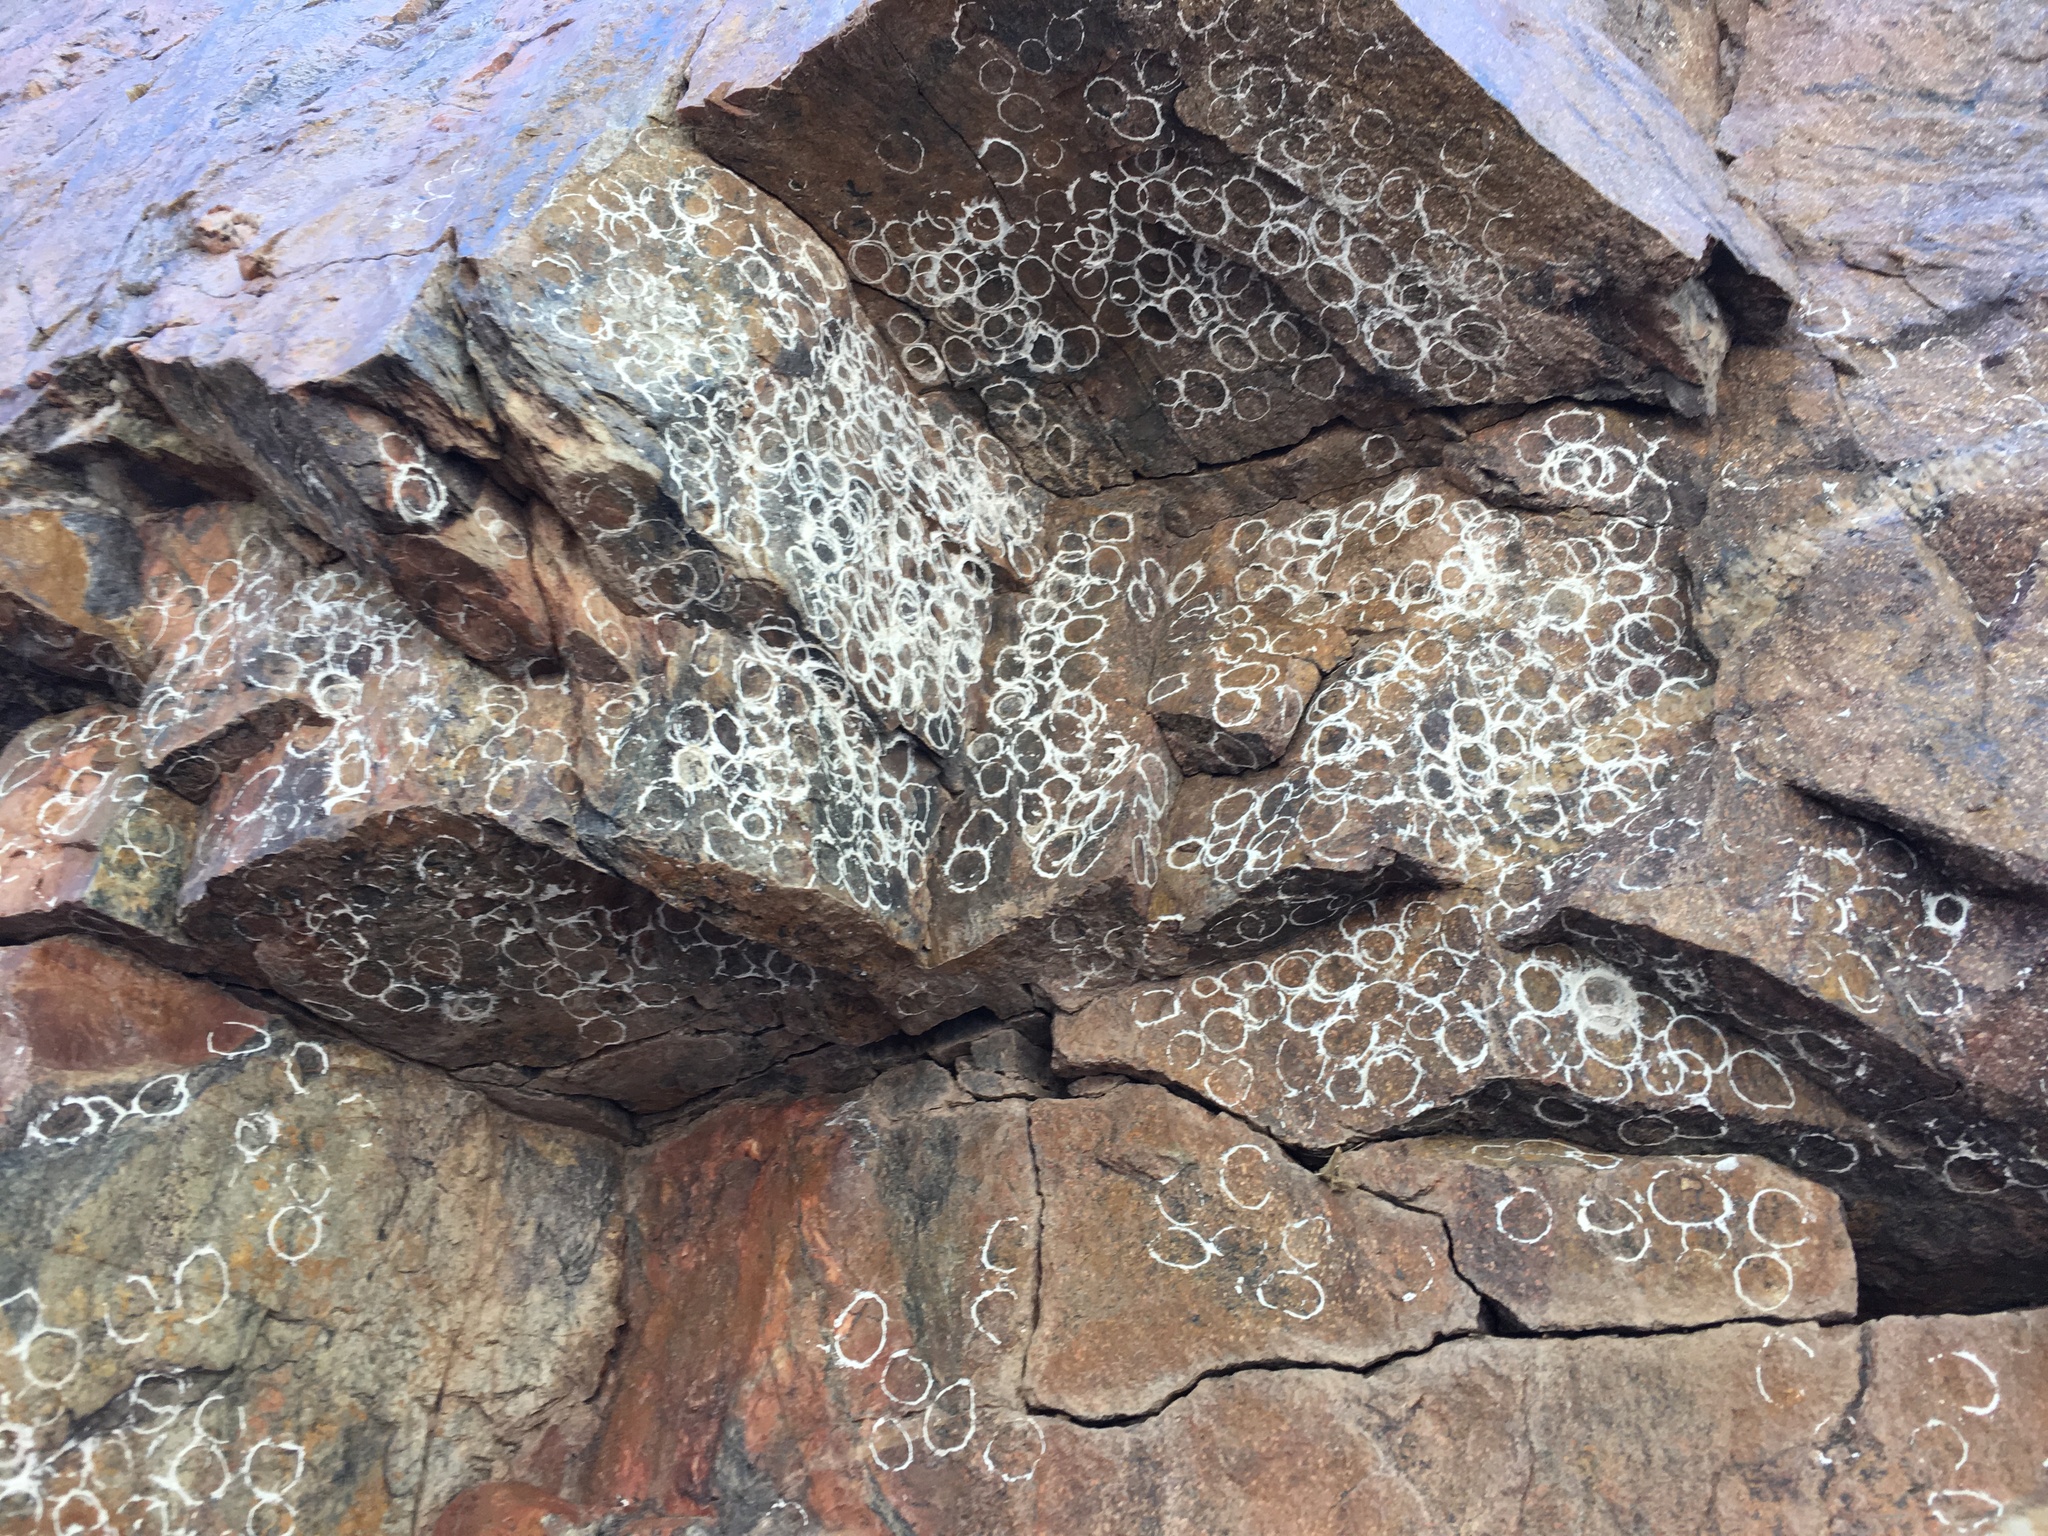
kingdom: Animalia
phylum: Arthropoda
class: Insecta
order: Megaloptera
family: Corydalidae
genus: Corydalus
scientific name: Corydalus texanus
